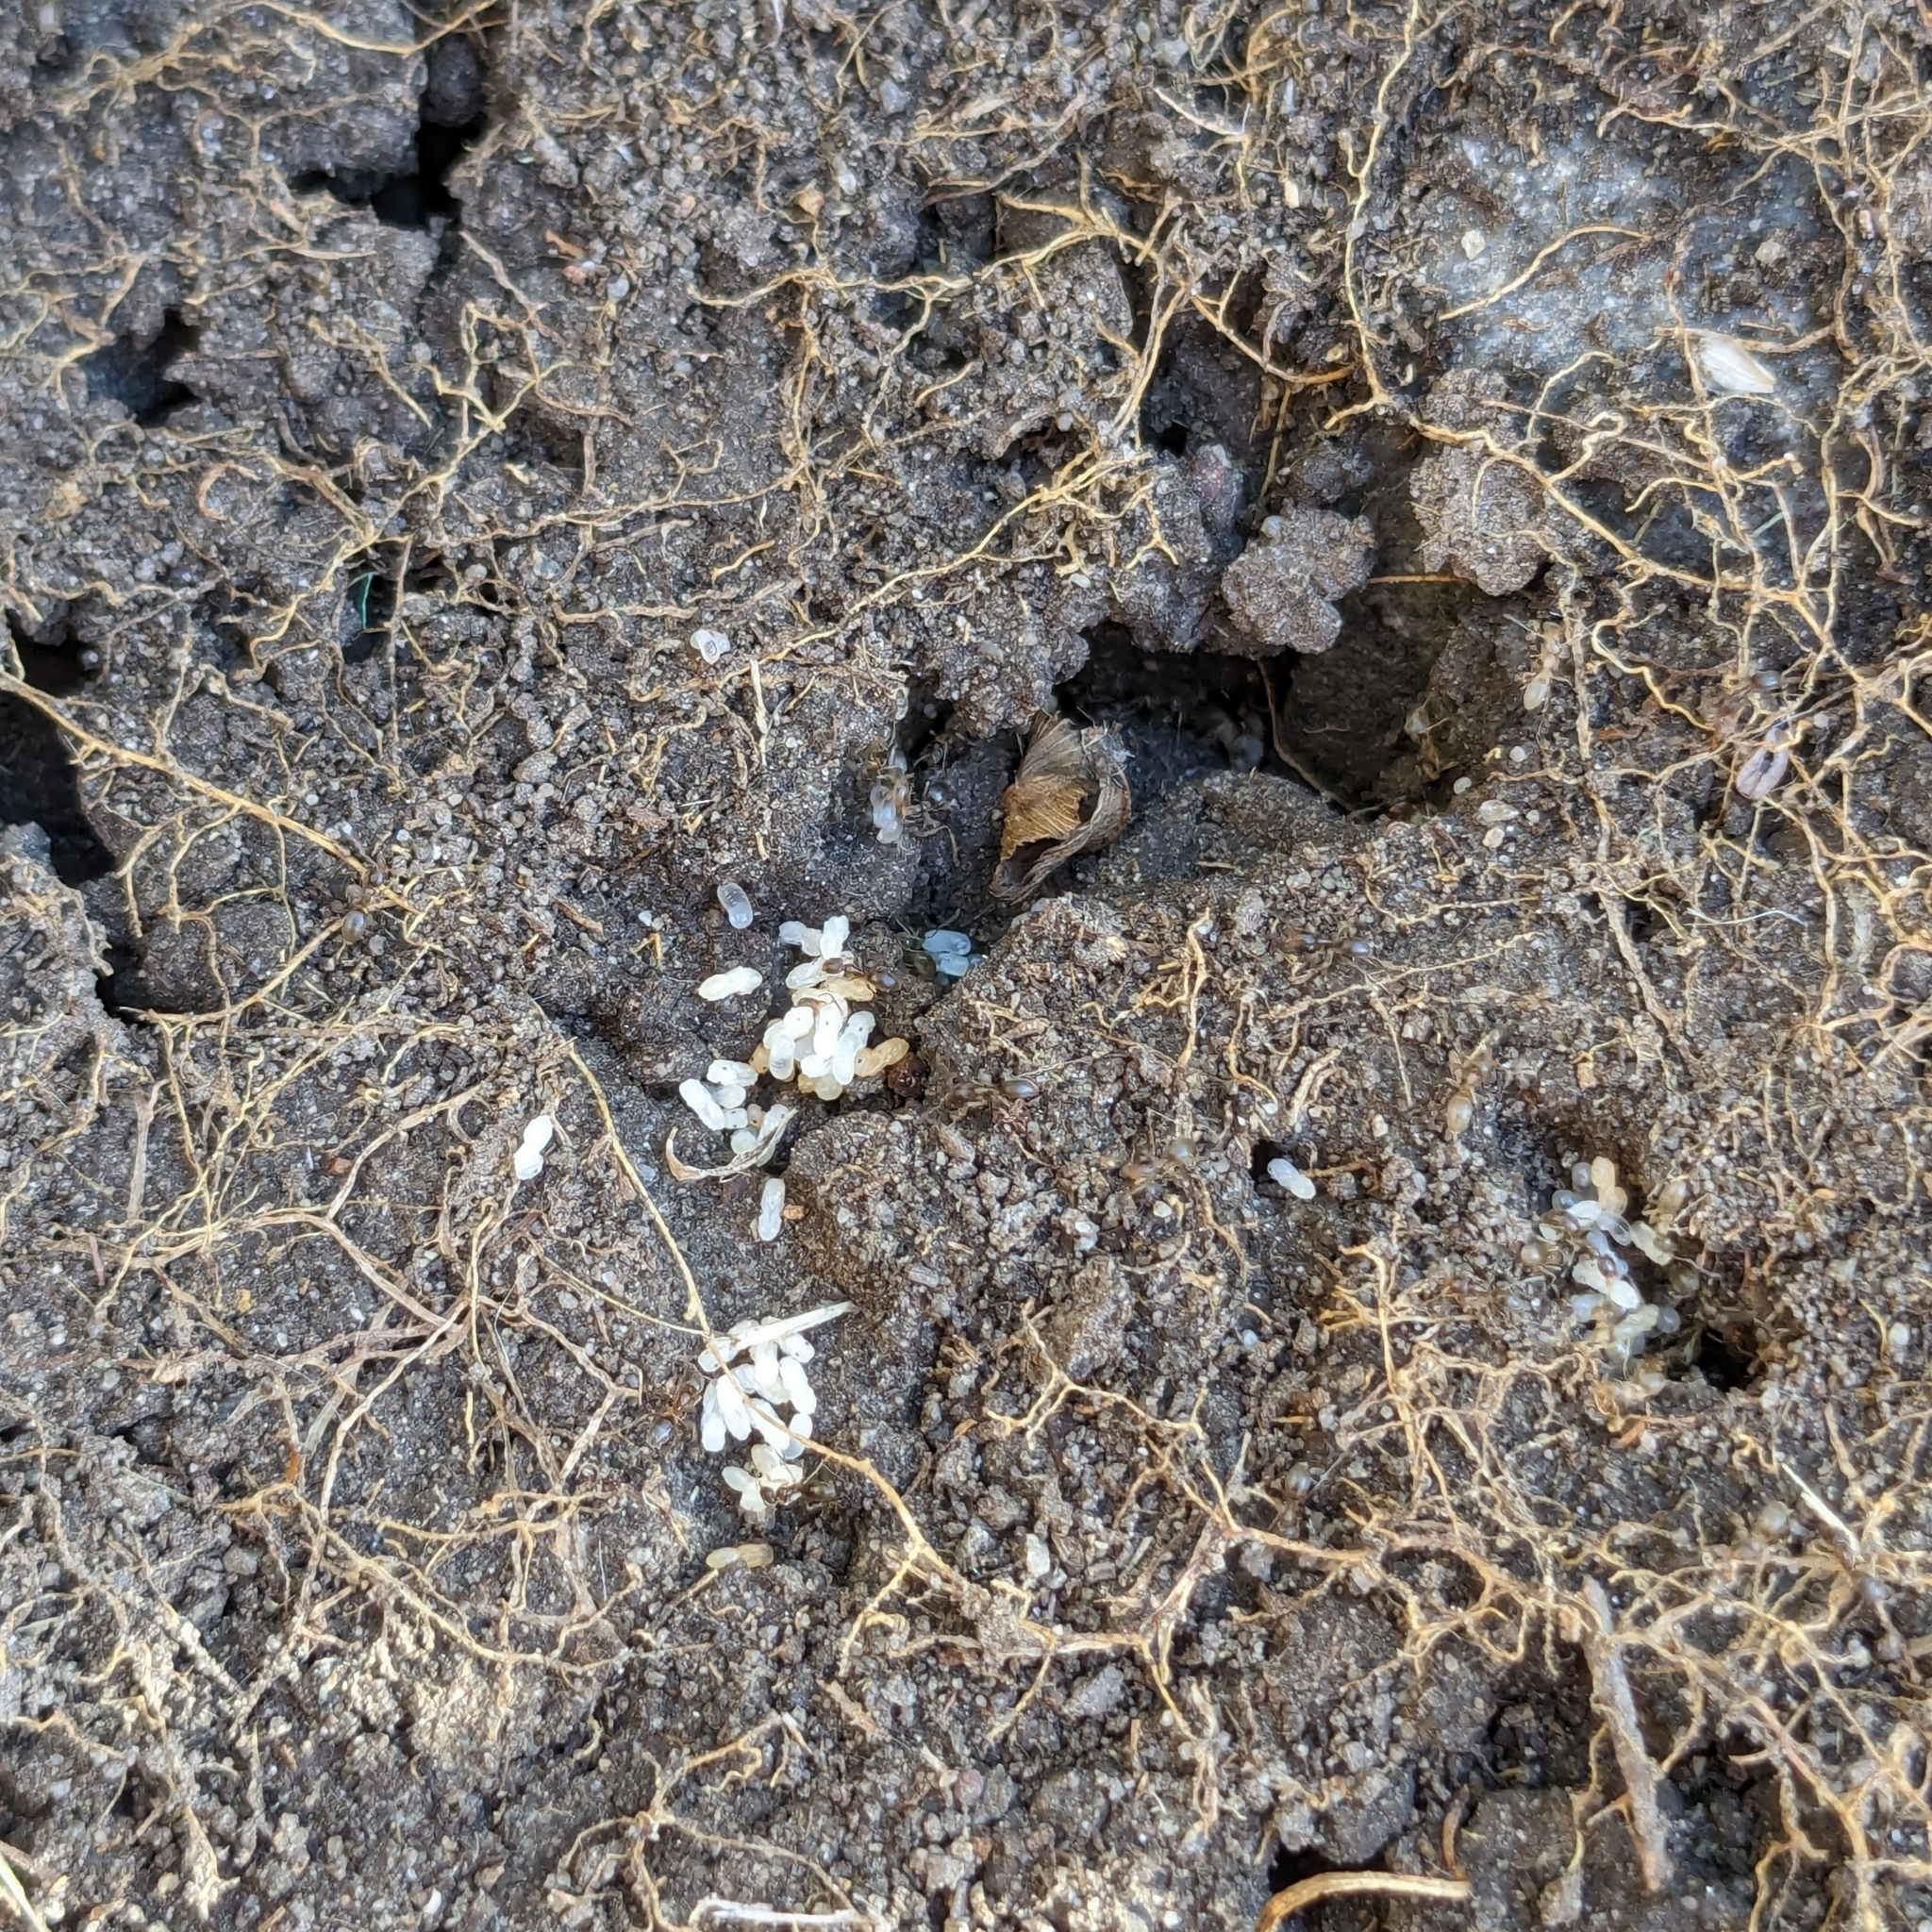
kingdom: Animalia
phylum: Arthropoda
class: Insecta
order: Hymenoptera
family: Formicidae
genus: Doleromyrma
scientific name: Doleromyrma darwiniana
